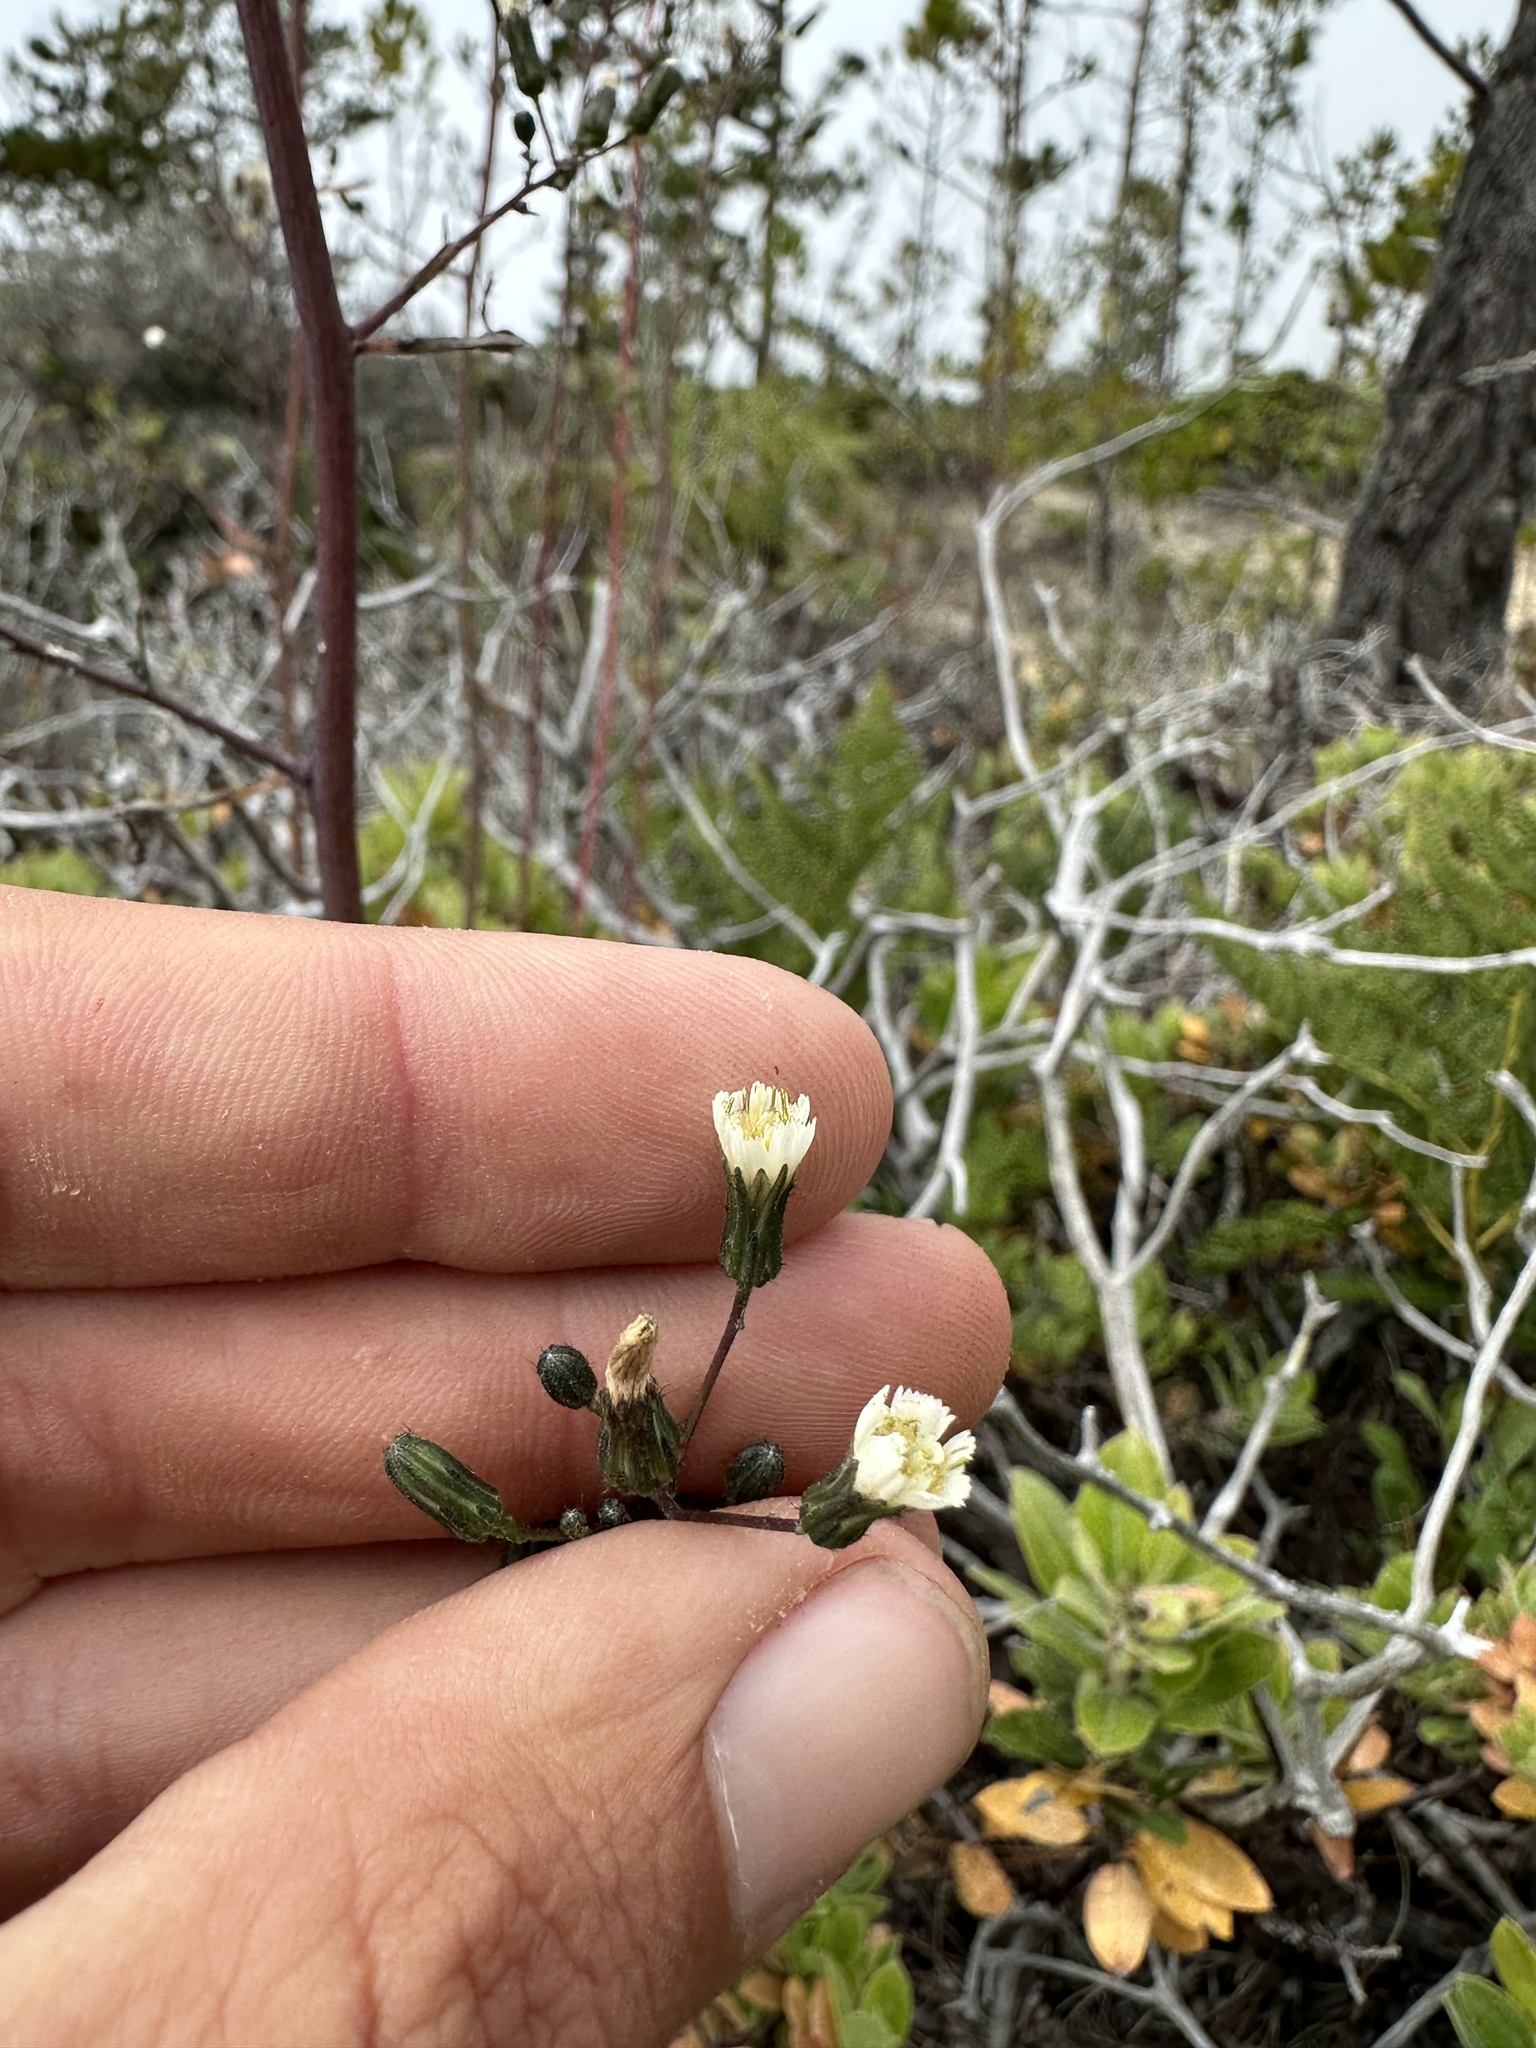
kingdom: Plantae
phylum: Tracheophyta
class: Magnoliopsida
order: Asterales
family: Asteraceae
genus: Hieracium
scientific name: Hieracium albiflorum
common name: White hawkweed
